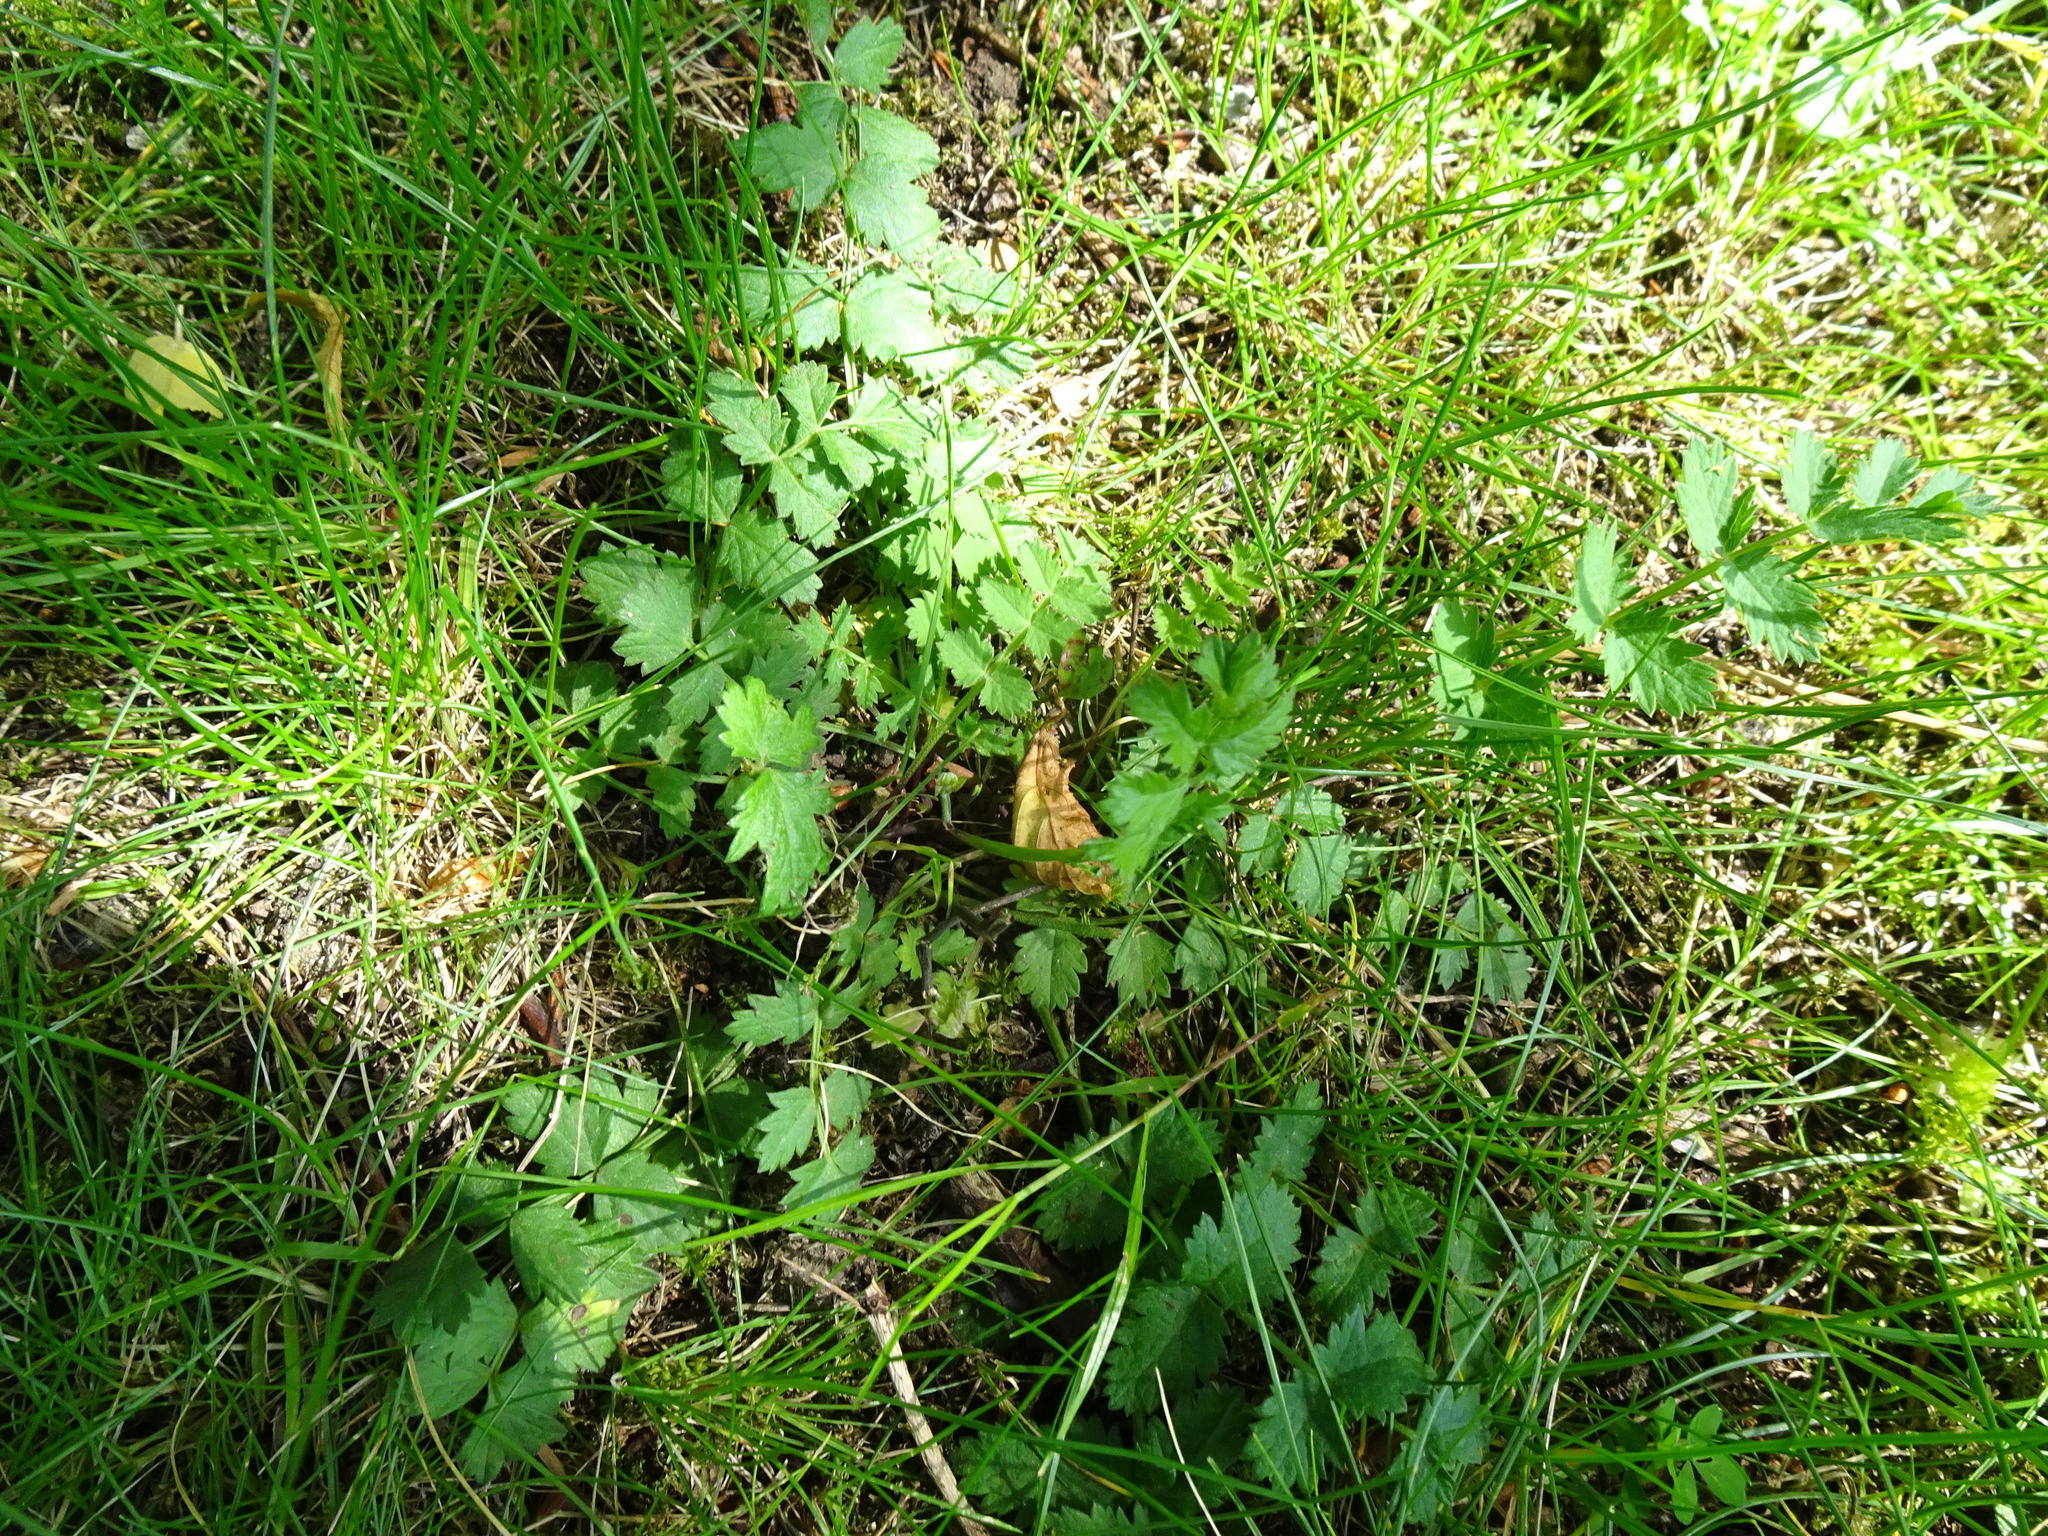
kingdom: Plantae
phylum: Tracheophyta
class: Magnoliopsida
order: Apiales
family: Apiaceae
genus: Pimpinella
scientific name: Pimpinella saxifraga
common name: Burnet-saxifrage
